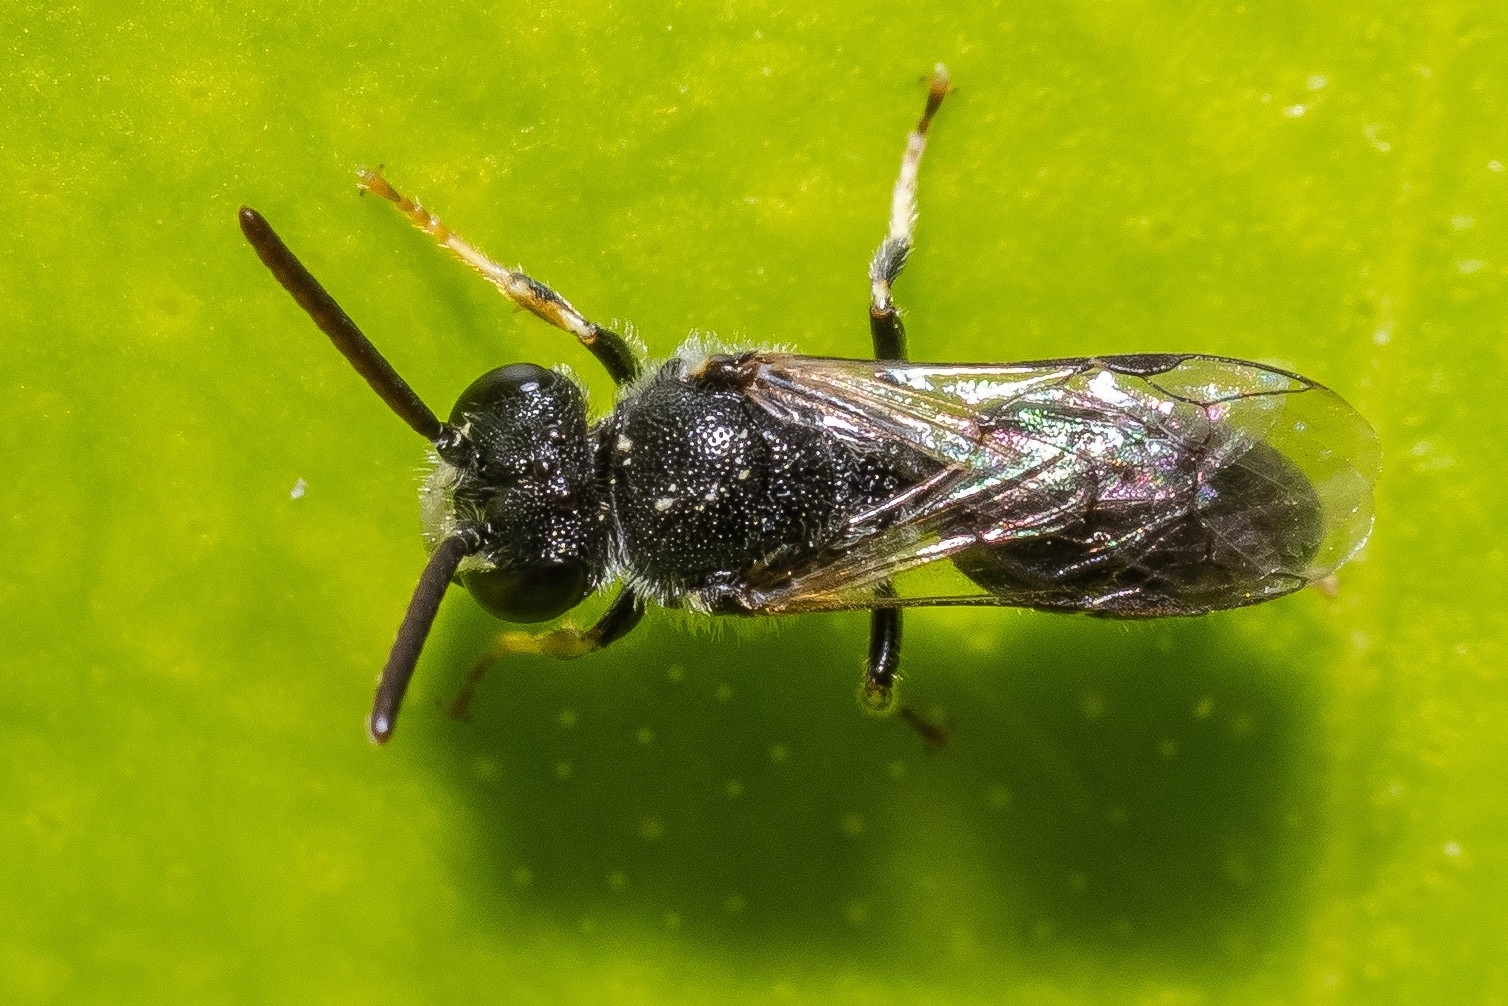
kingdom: Animalia
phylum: Arthropoda
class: Insecta
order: Hymenoptera
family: Colletidae
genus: Hylaeus
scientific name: Hylaeus hyalinatus
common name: Hyaline masked bee
